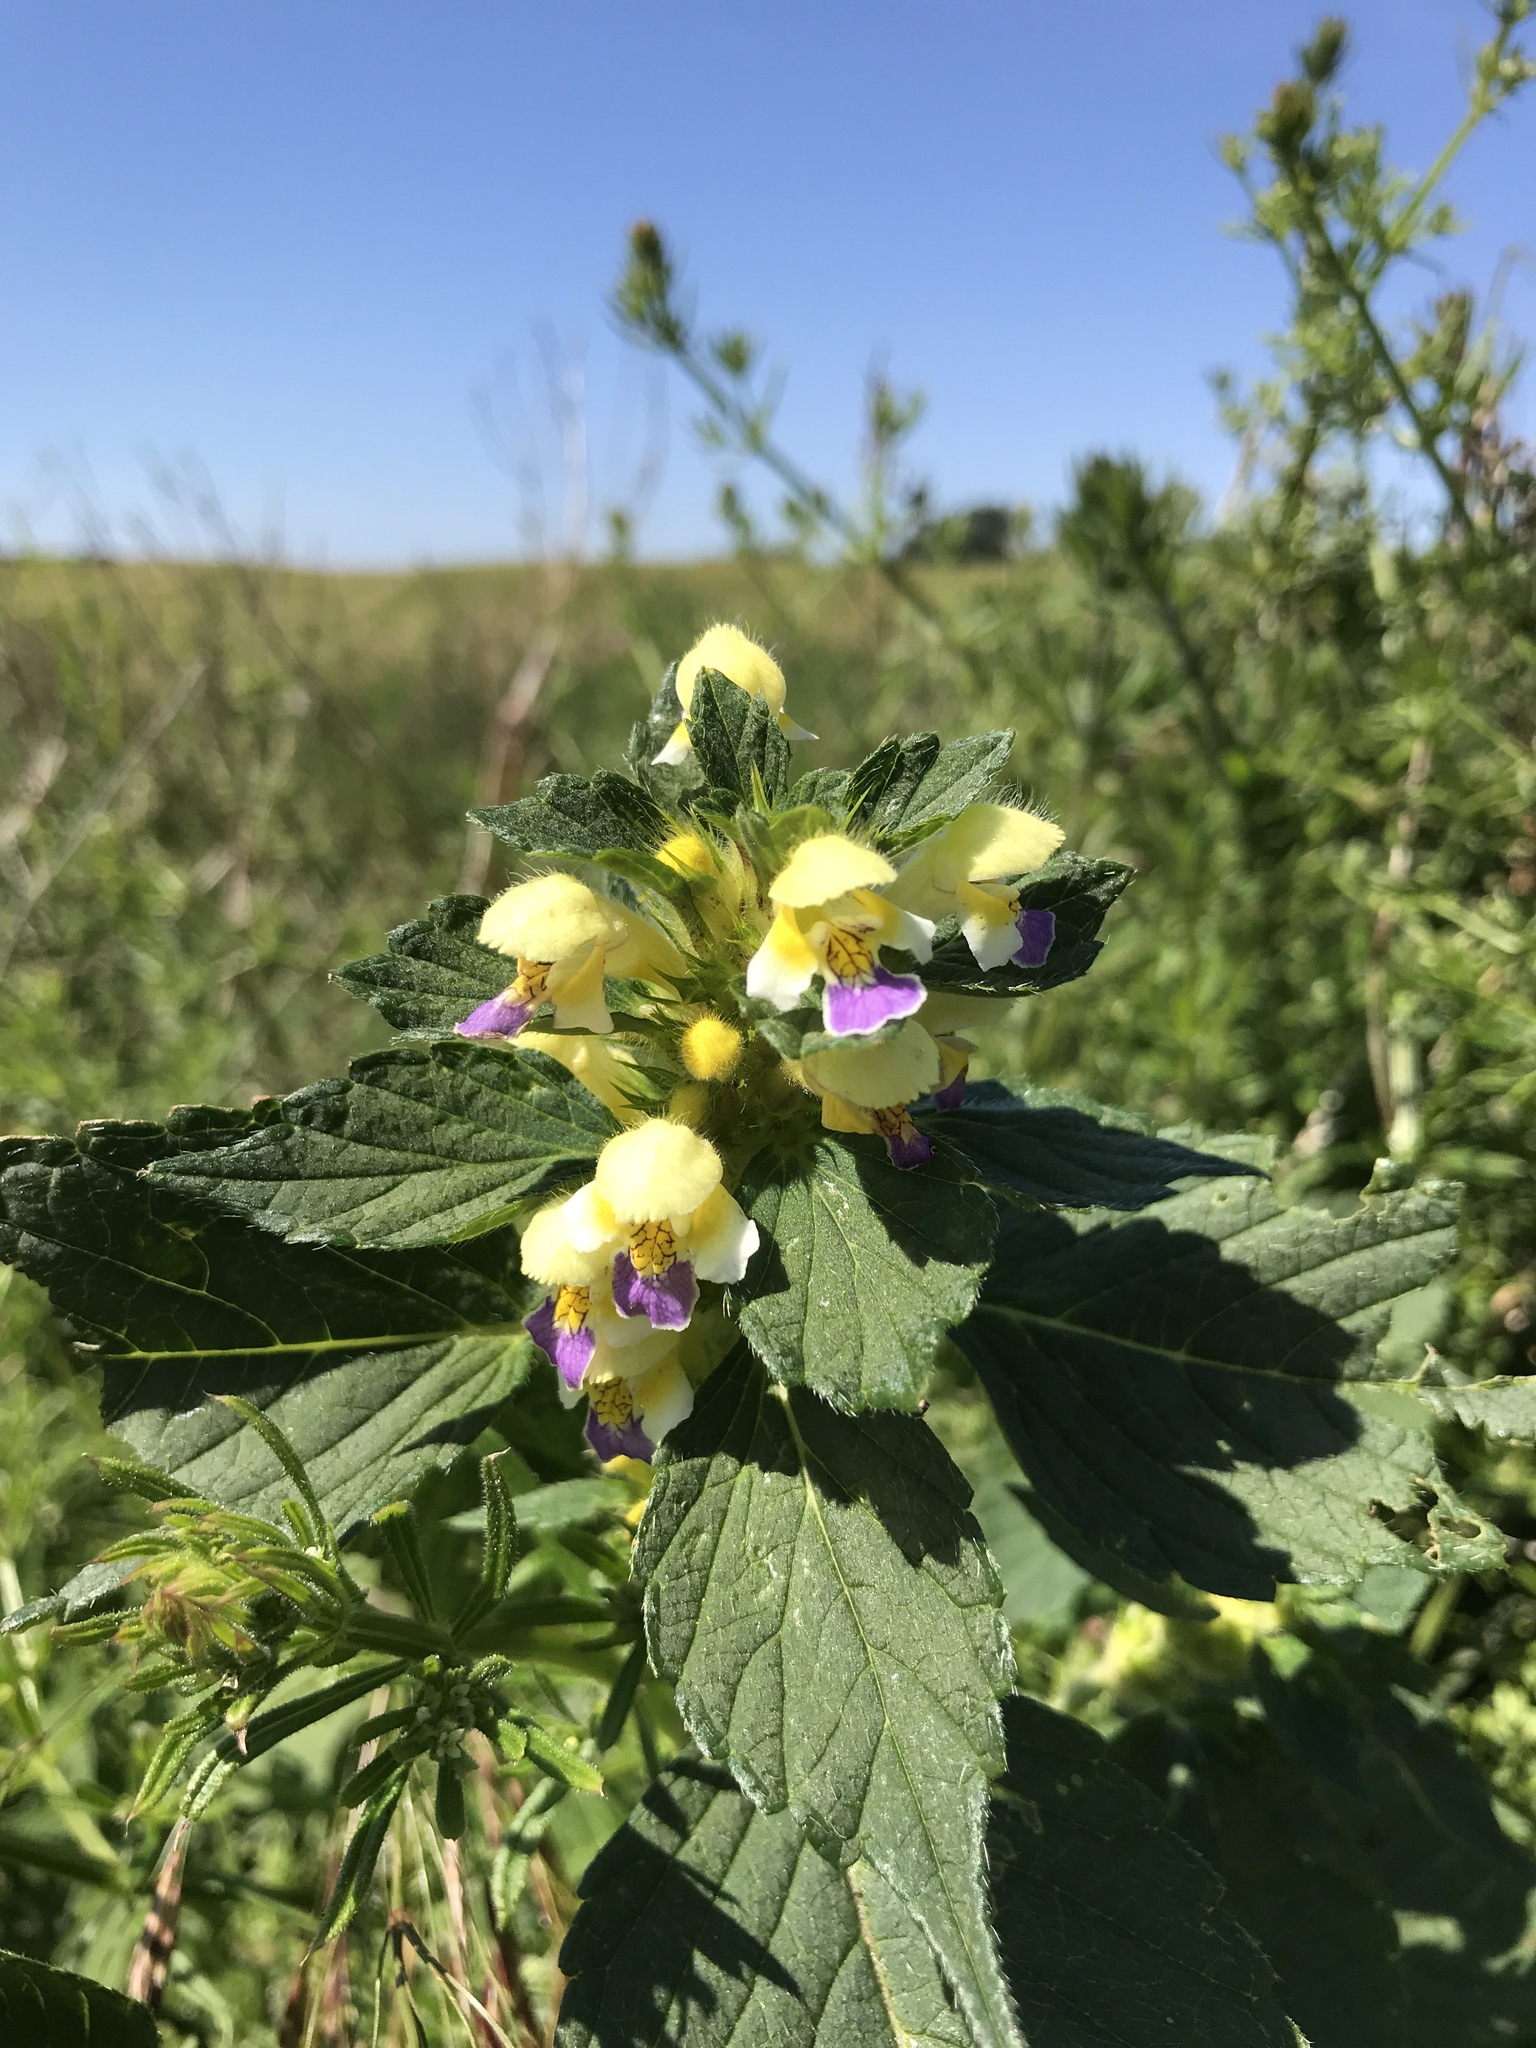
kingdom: Plantae
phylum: Tracheophyta
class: Magnoliopsida
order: Lamiales
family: Lamiaceae
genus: Galeopsis
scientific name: Galeopsis speciosa
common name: Large-flowered hemp-nettle
